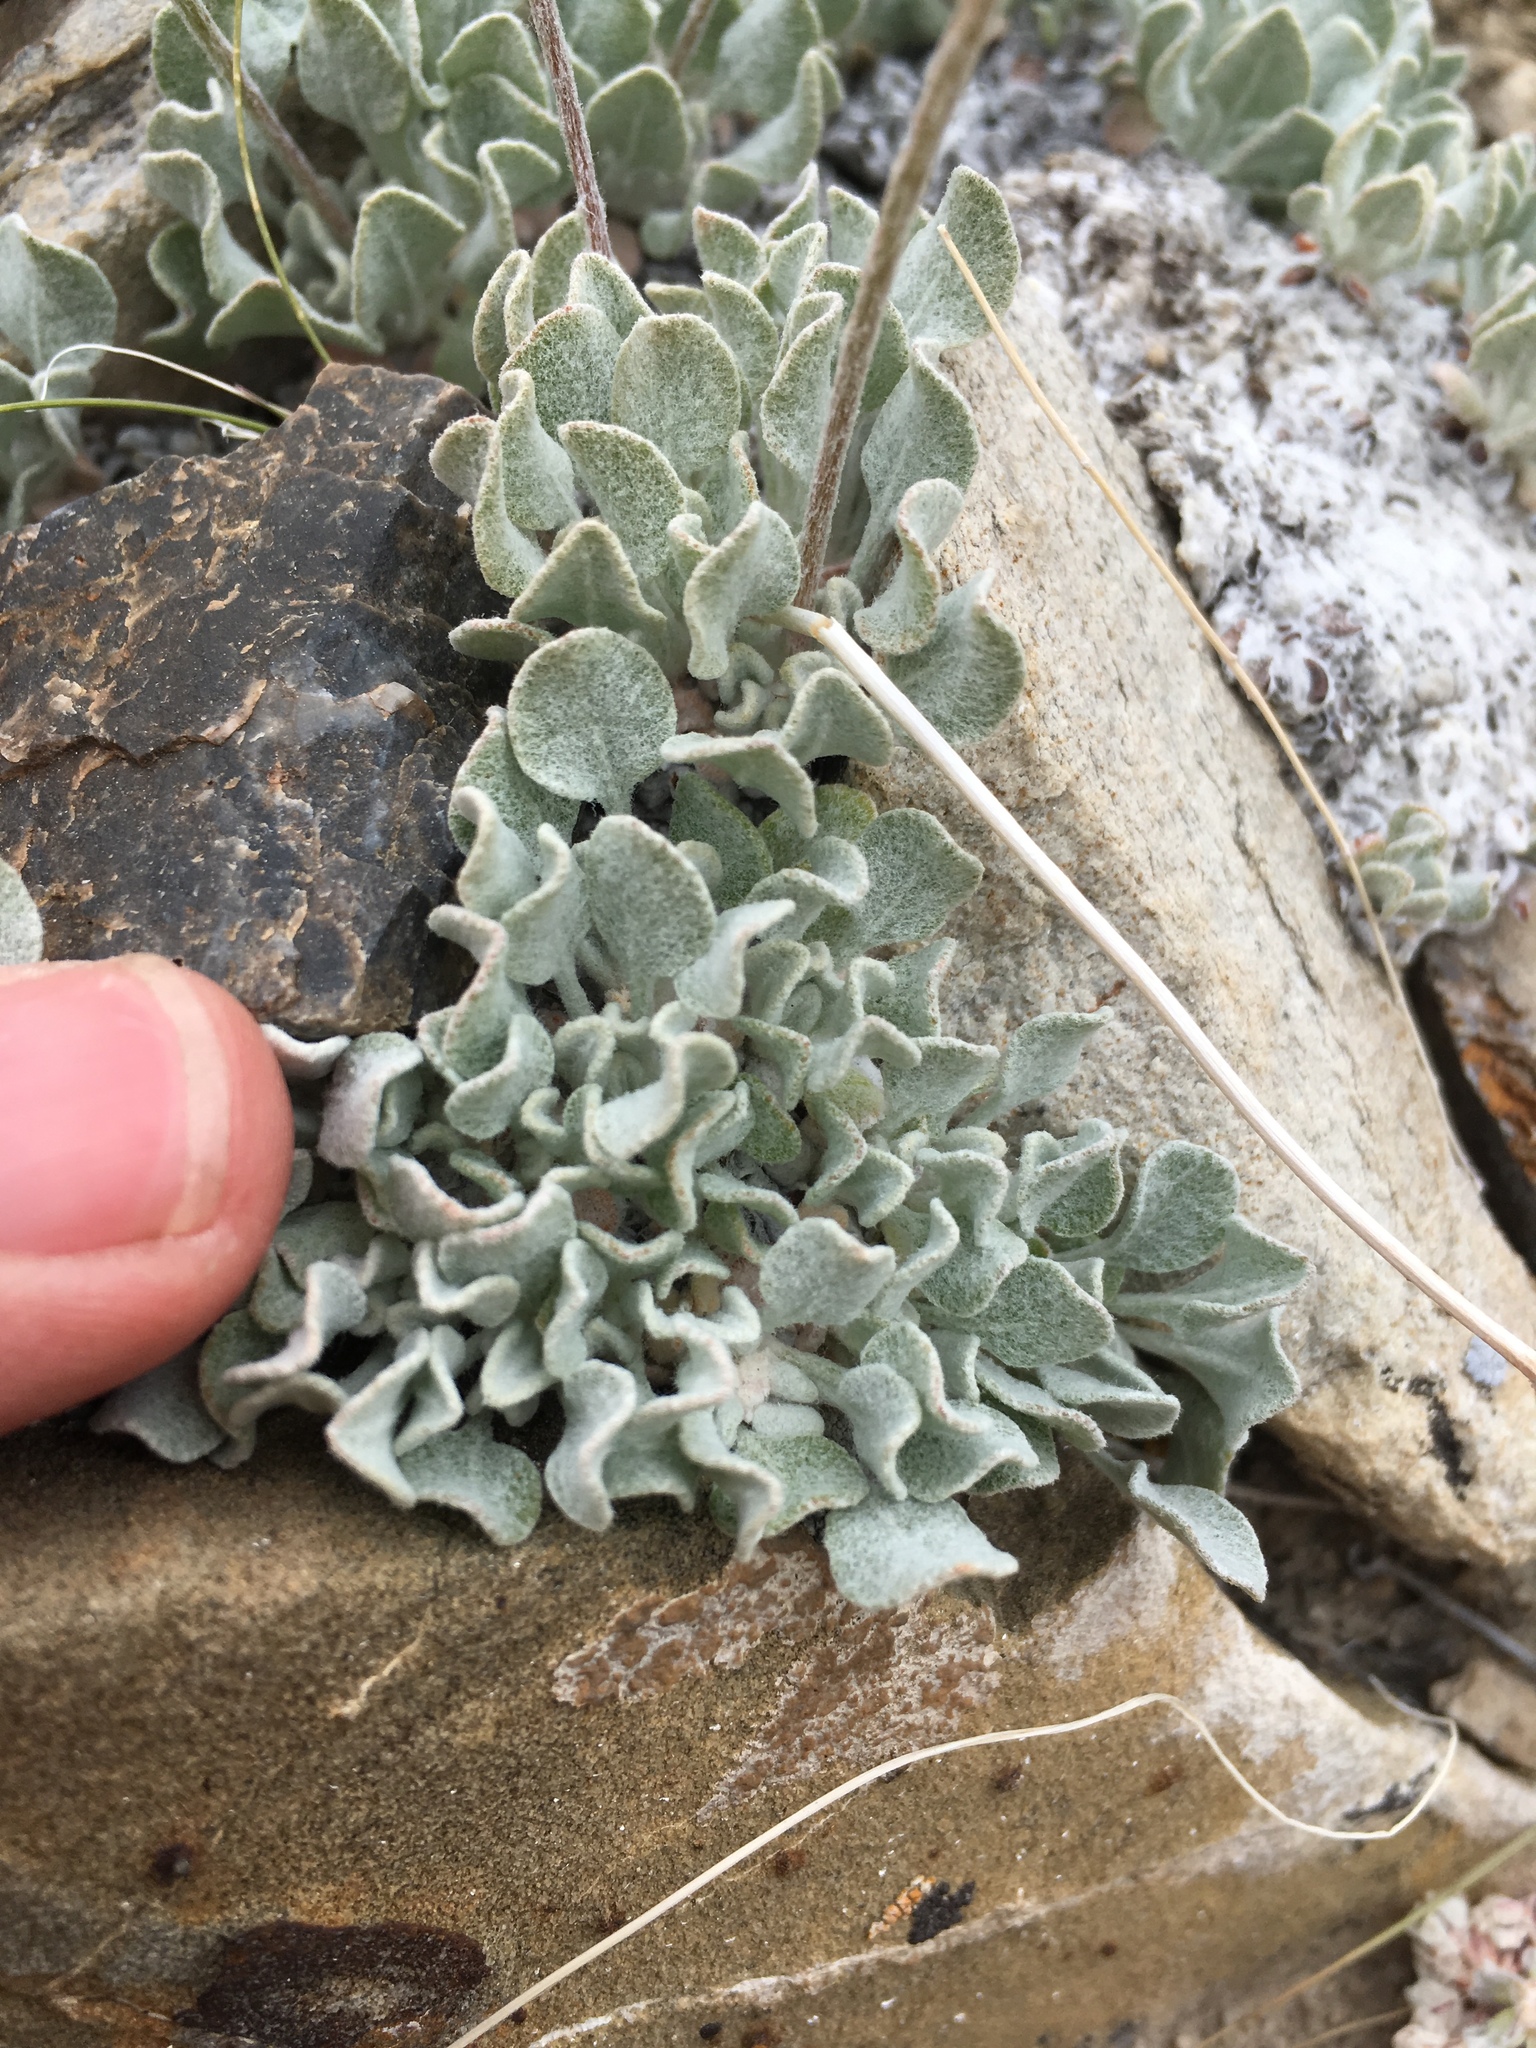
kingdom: Plantae
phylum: Tracheophyta
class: Magnoliopsida
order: Caryophyllales
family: Polygonaceae
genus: Eriogonum
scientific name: Eriogonum ovalifolium
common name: Cushion buckwheat
